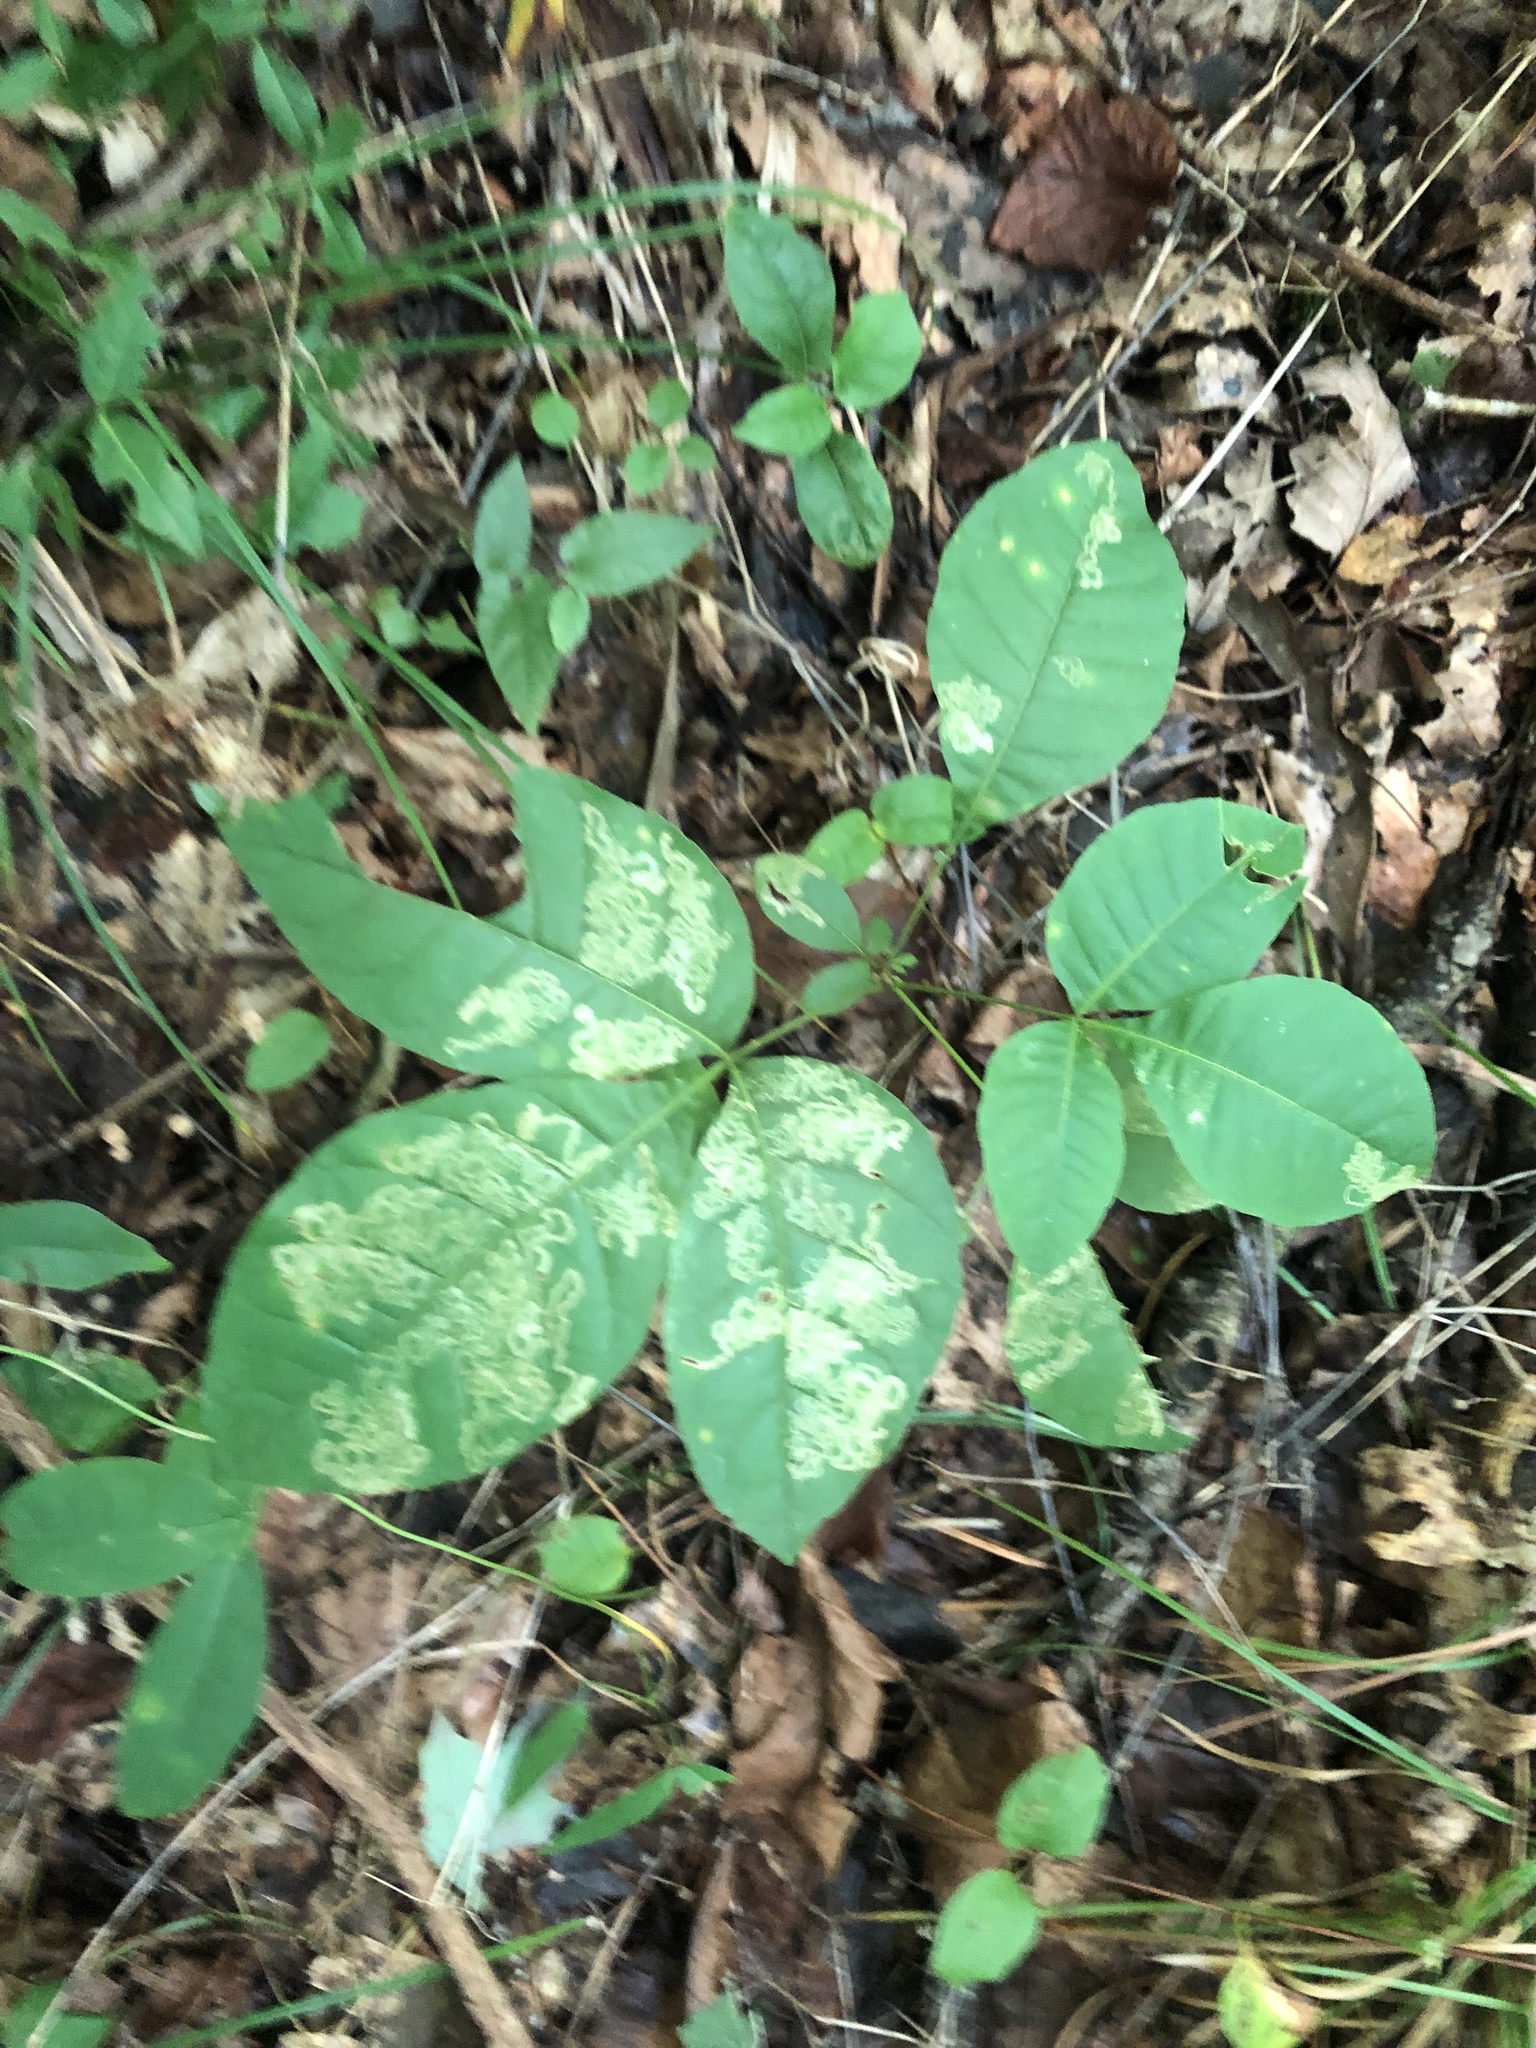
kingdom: Plantae
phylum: Tracheophyta
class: Magnoliopsida
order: Sapindales
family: Rutaceae
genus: Ptelea
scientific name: Ptelea trifoliata
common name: Common hop-tree
